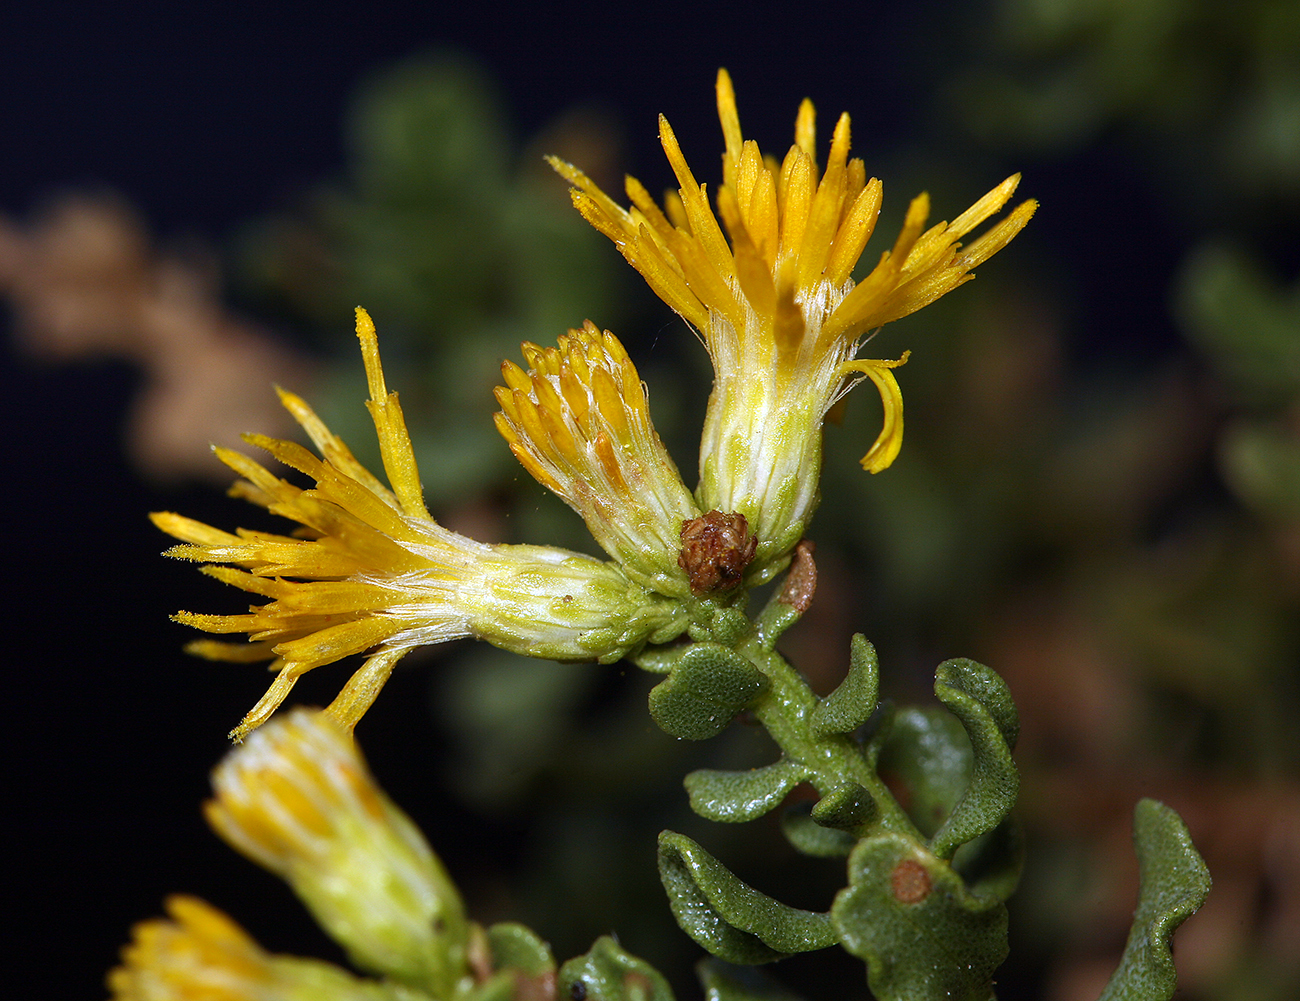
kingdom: Plantae
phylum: Tracheophyta
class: Magnoliopsida
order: Asterales
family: Asteraceae
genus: Ericameria
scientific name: Ericameria cuneata
